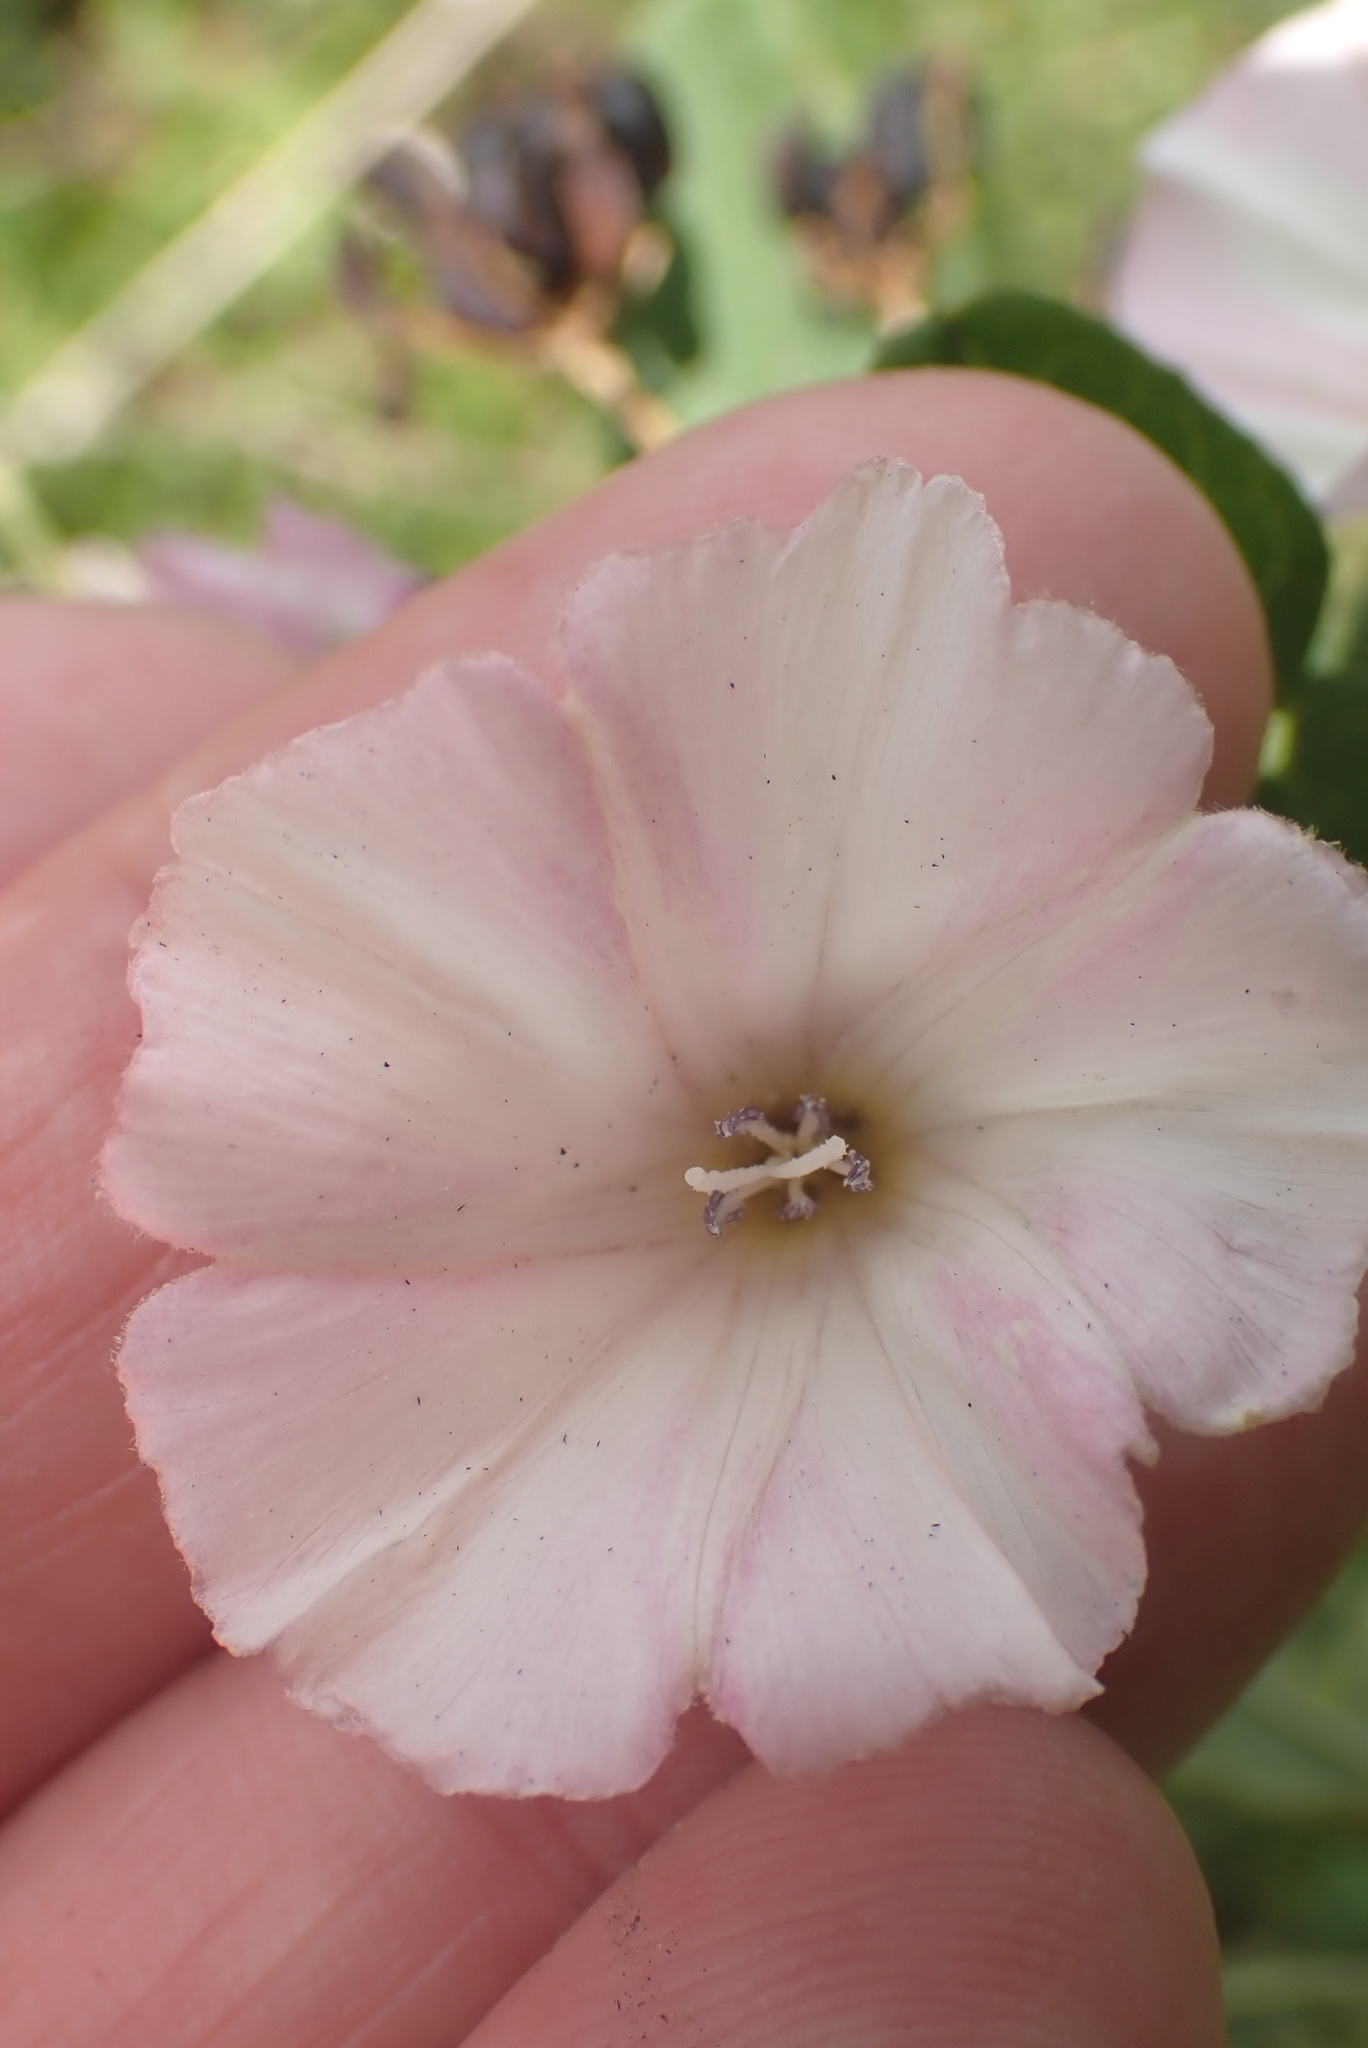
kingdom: Plantae
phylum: Tracheophyta
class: Magnoliopsida
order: Solanales
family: Convolvulaceae
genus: Convolvulus
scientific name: Convolvulus arvensis
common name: Field bindweed
